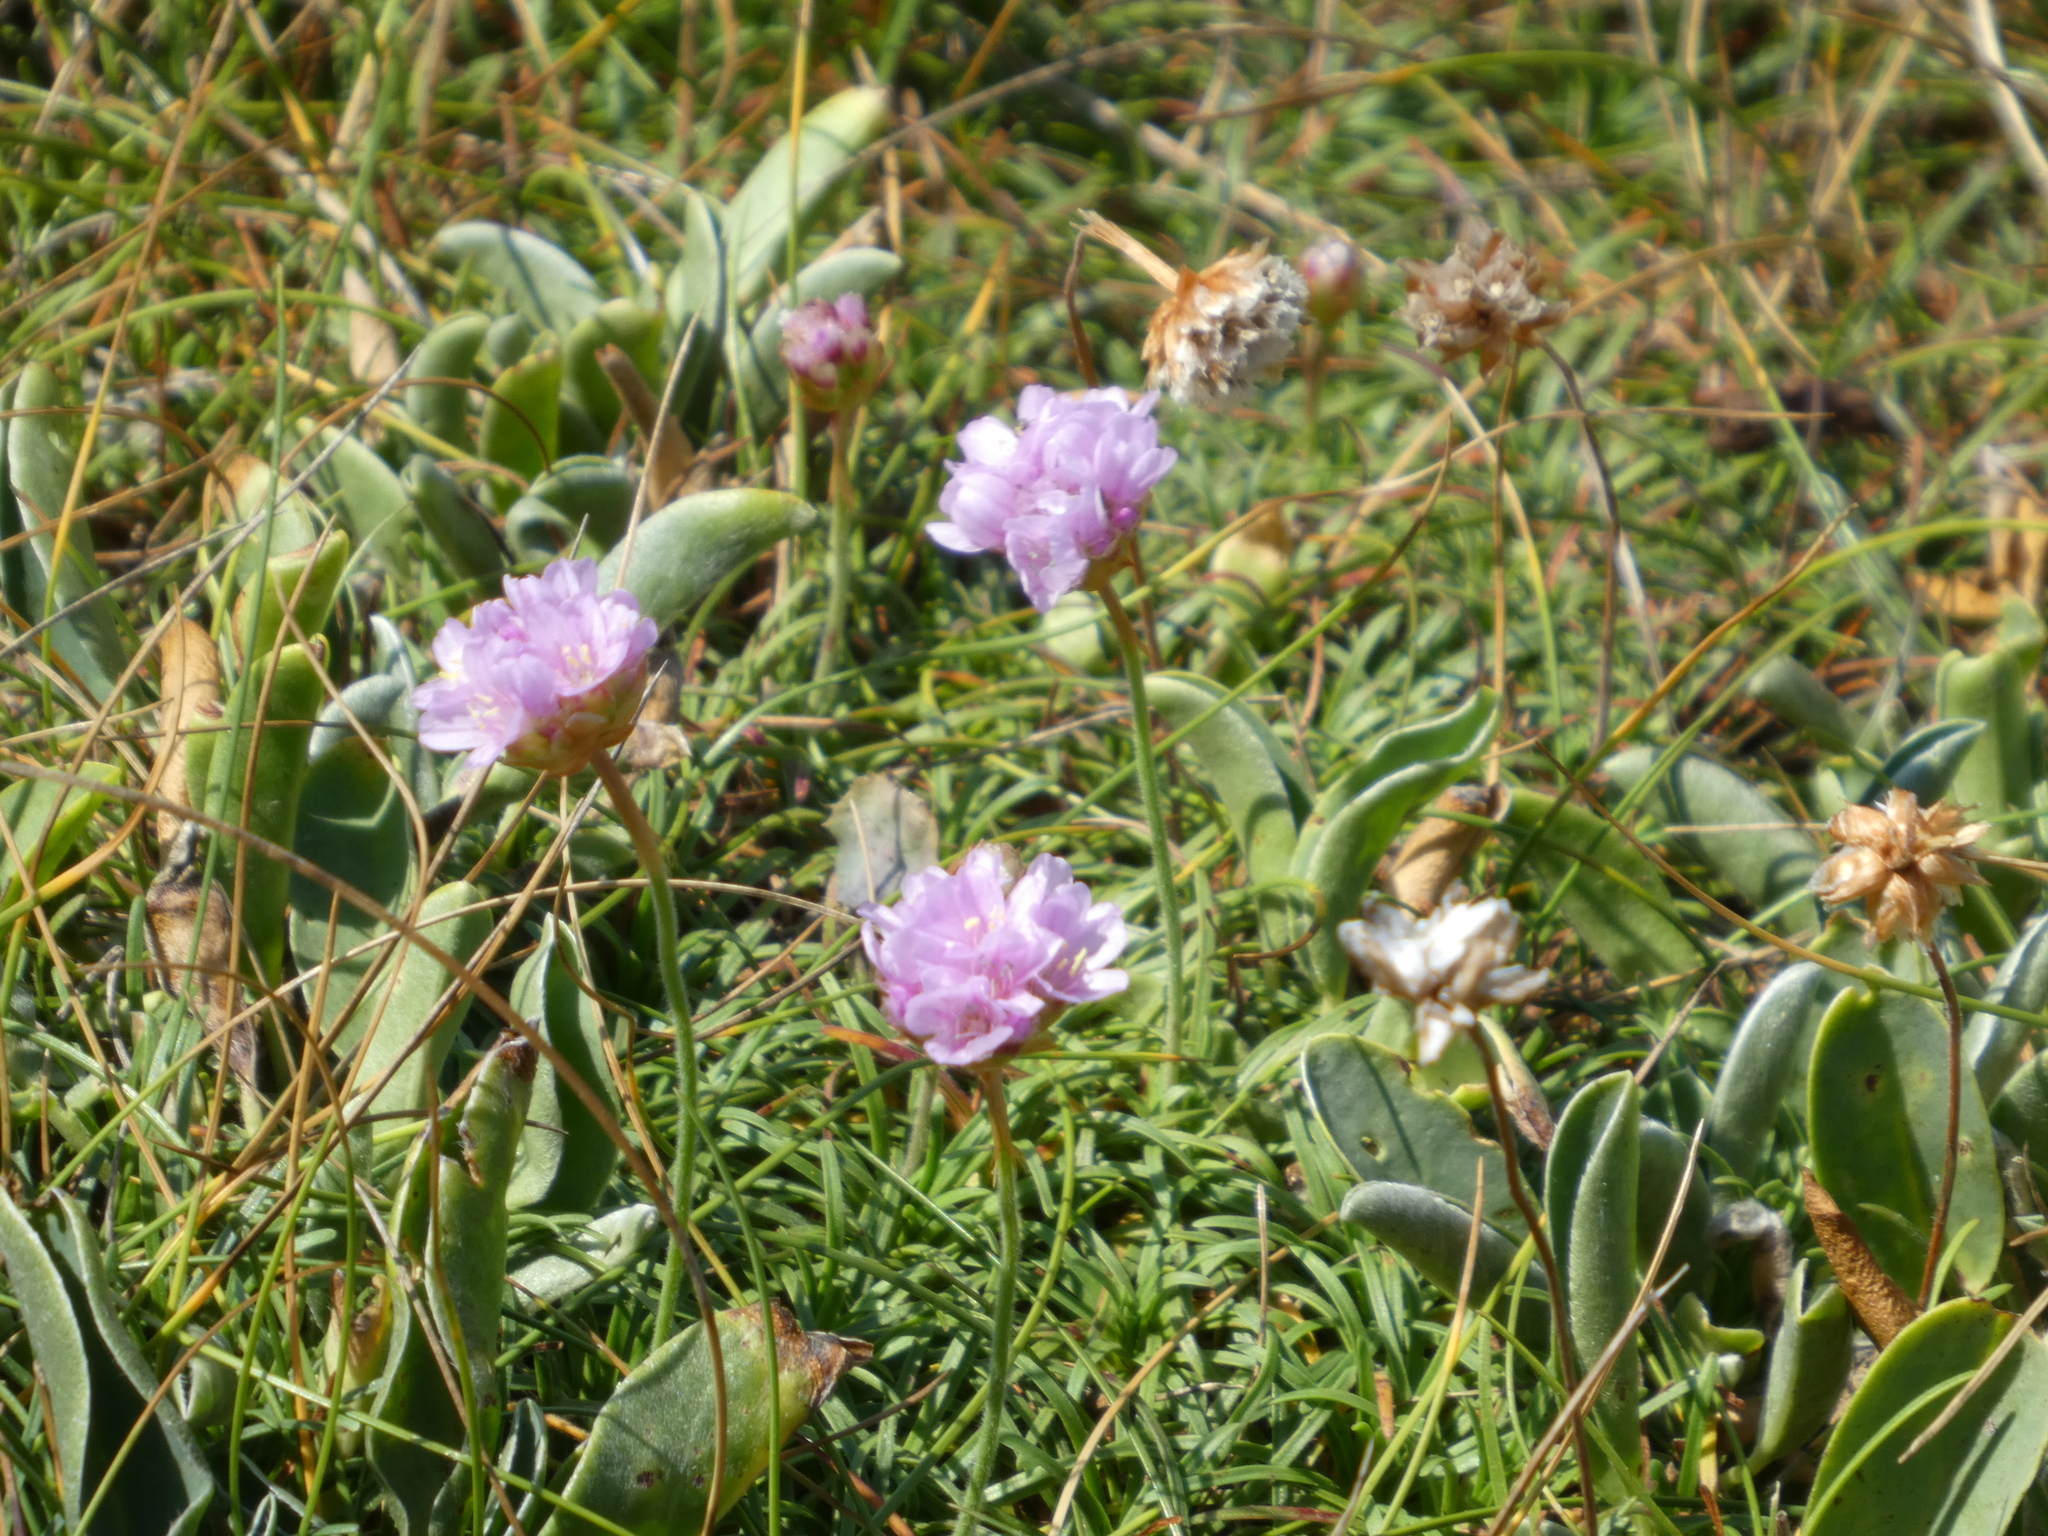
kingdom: Plantae
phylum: Tracheophyta
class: Magnoliopsida
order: Caryophyllales
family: Plumbaginaceae
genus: Armeria
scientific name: Armeria maritima
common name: Thrift
